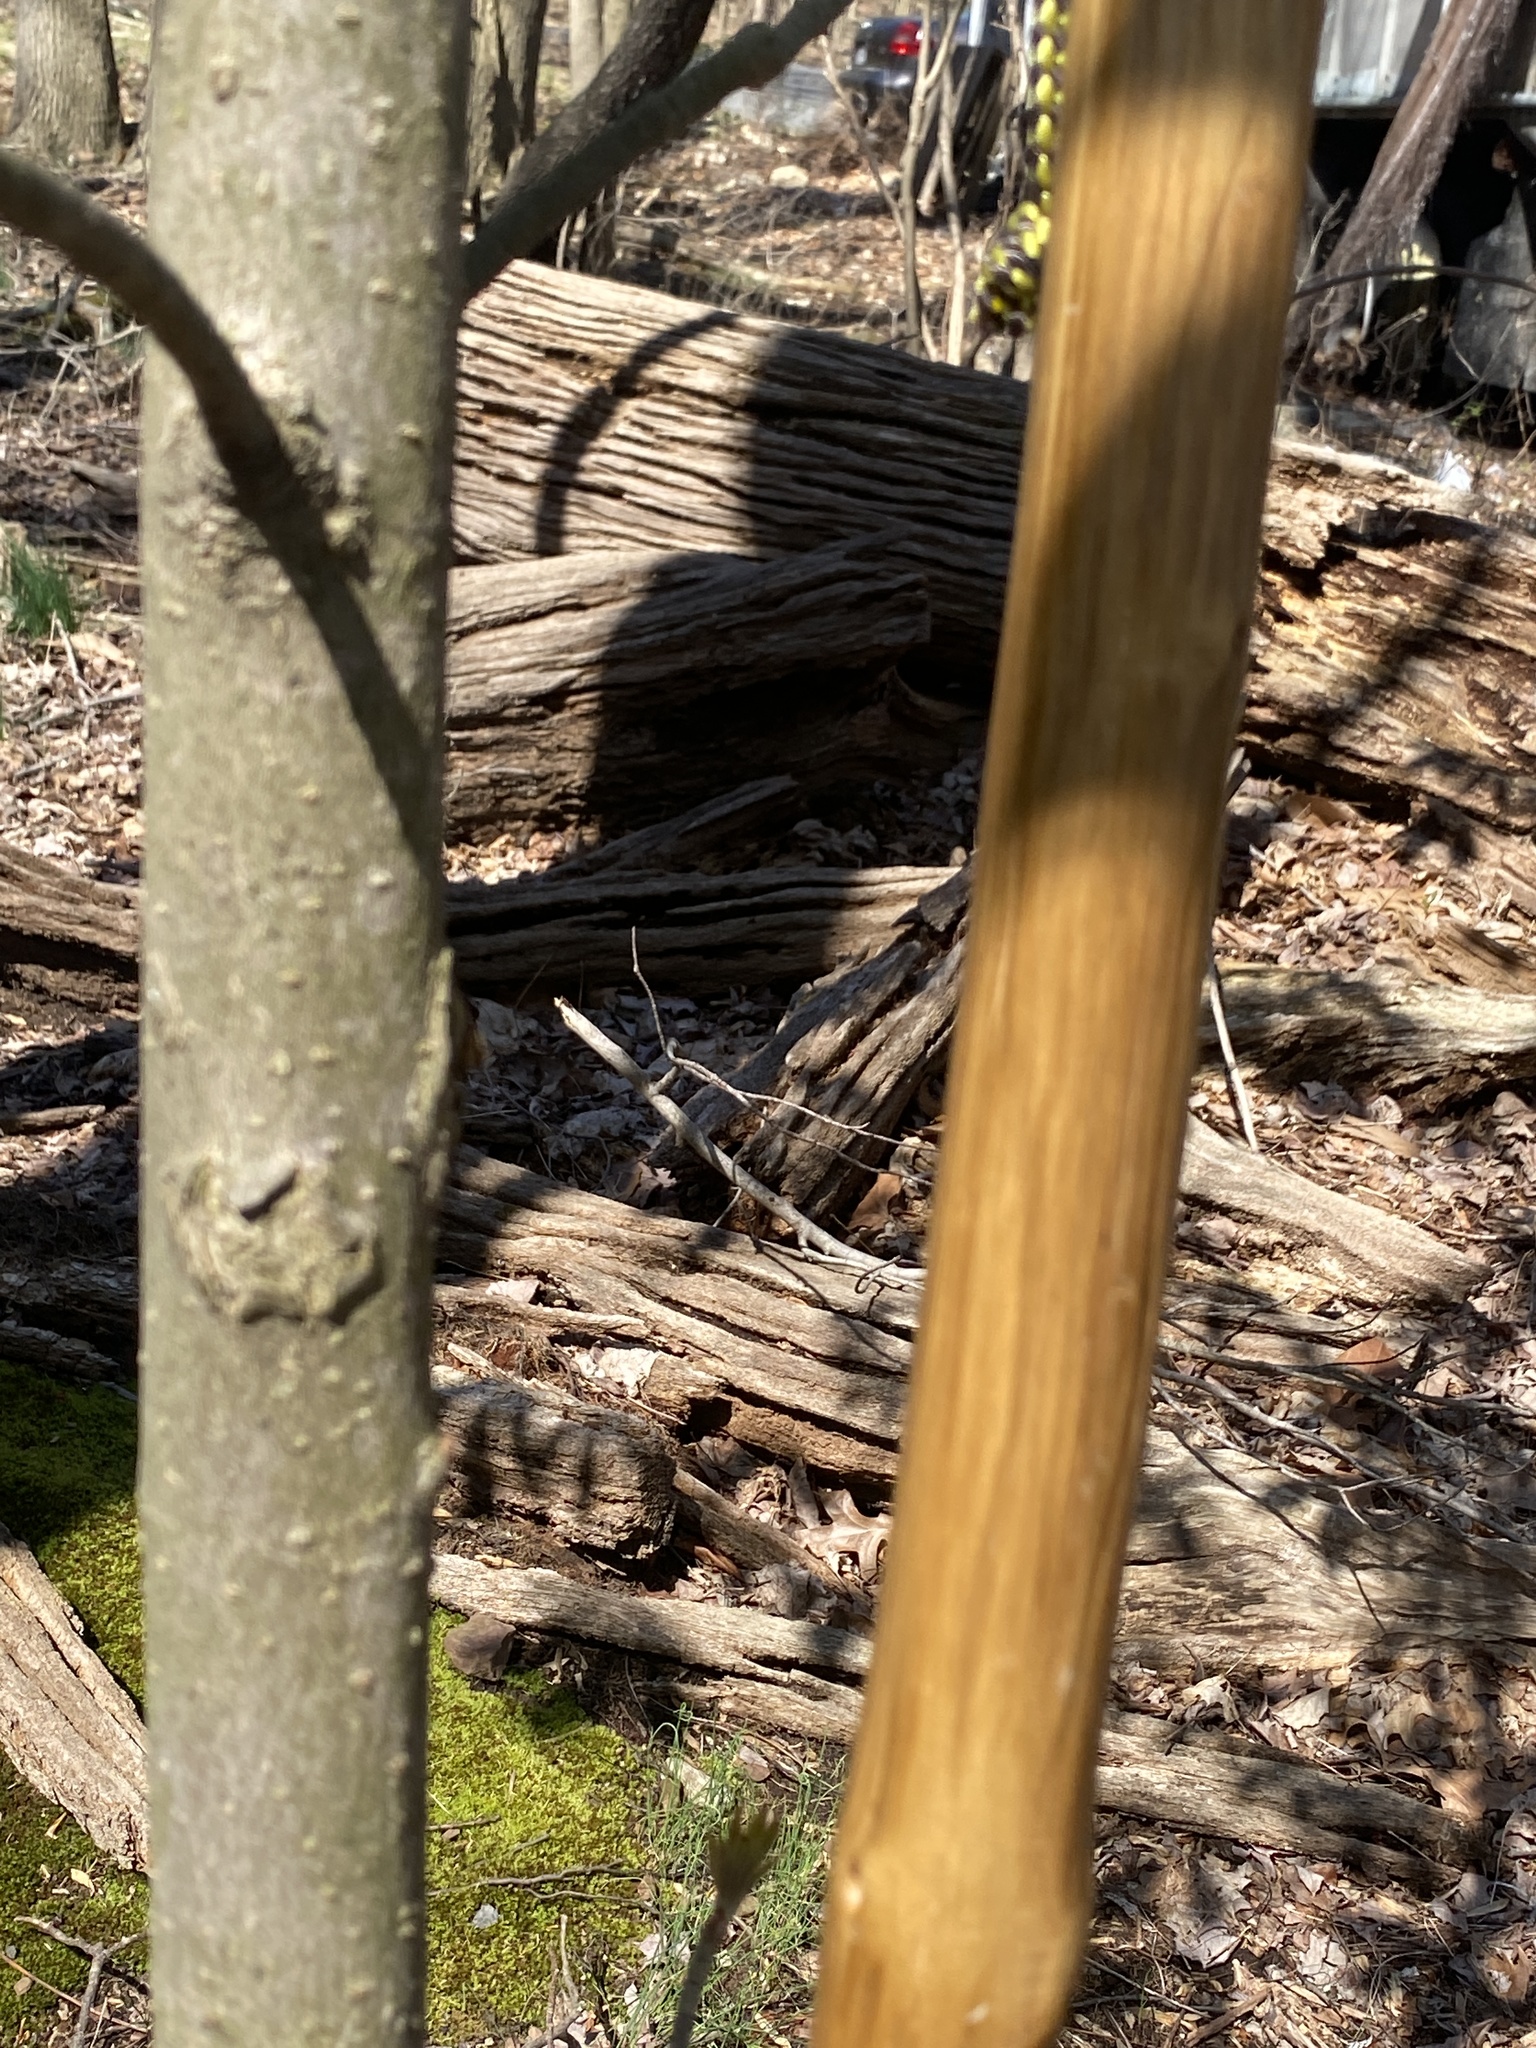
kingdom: Plantae
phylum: Tracheophyta
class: Magnoliopsida
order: Sapindales
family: Sapindaceae
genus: Aesculus
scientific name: Aesculus flava
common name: Yellow buckeye
